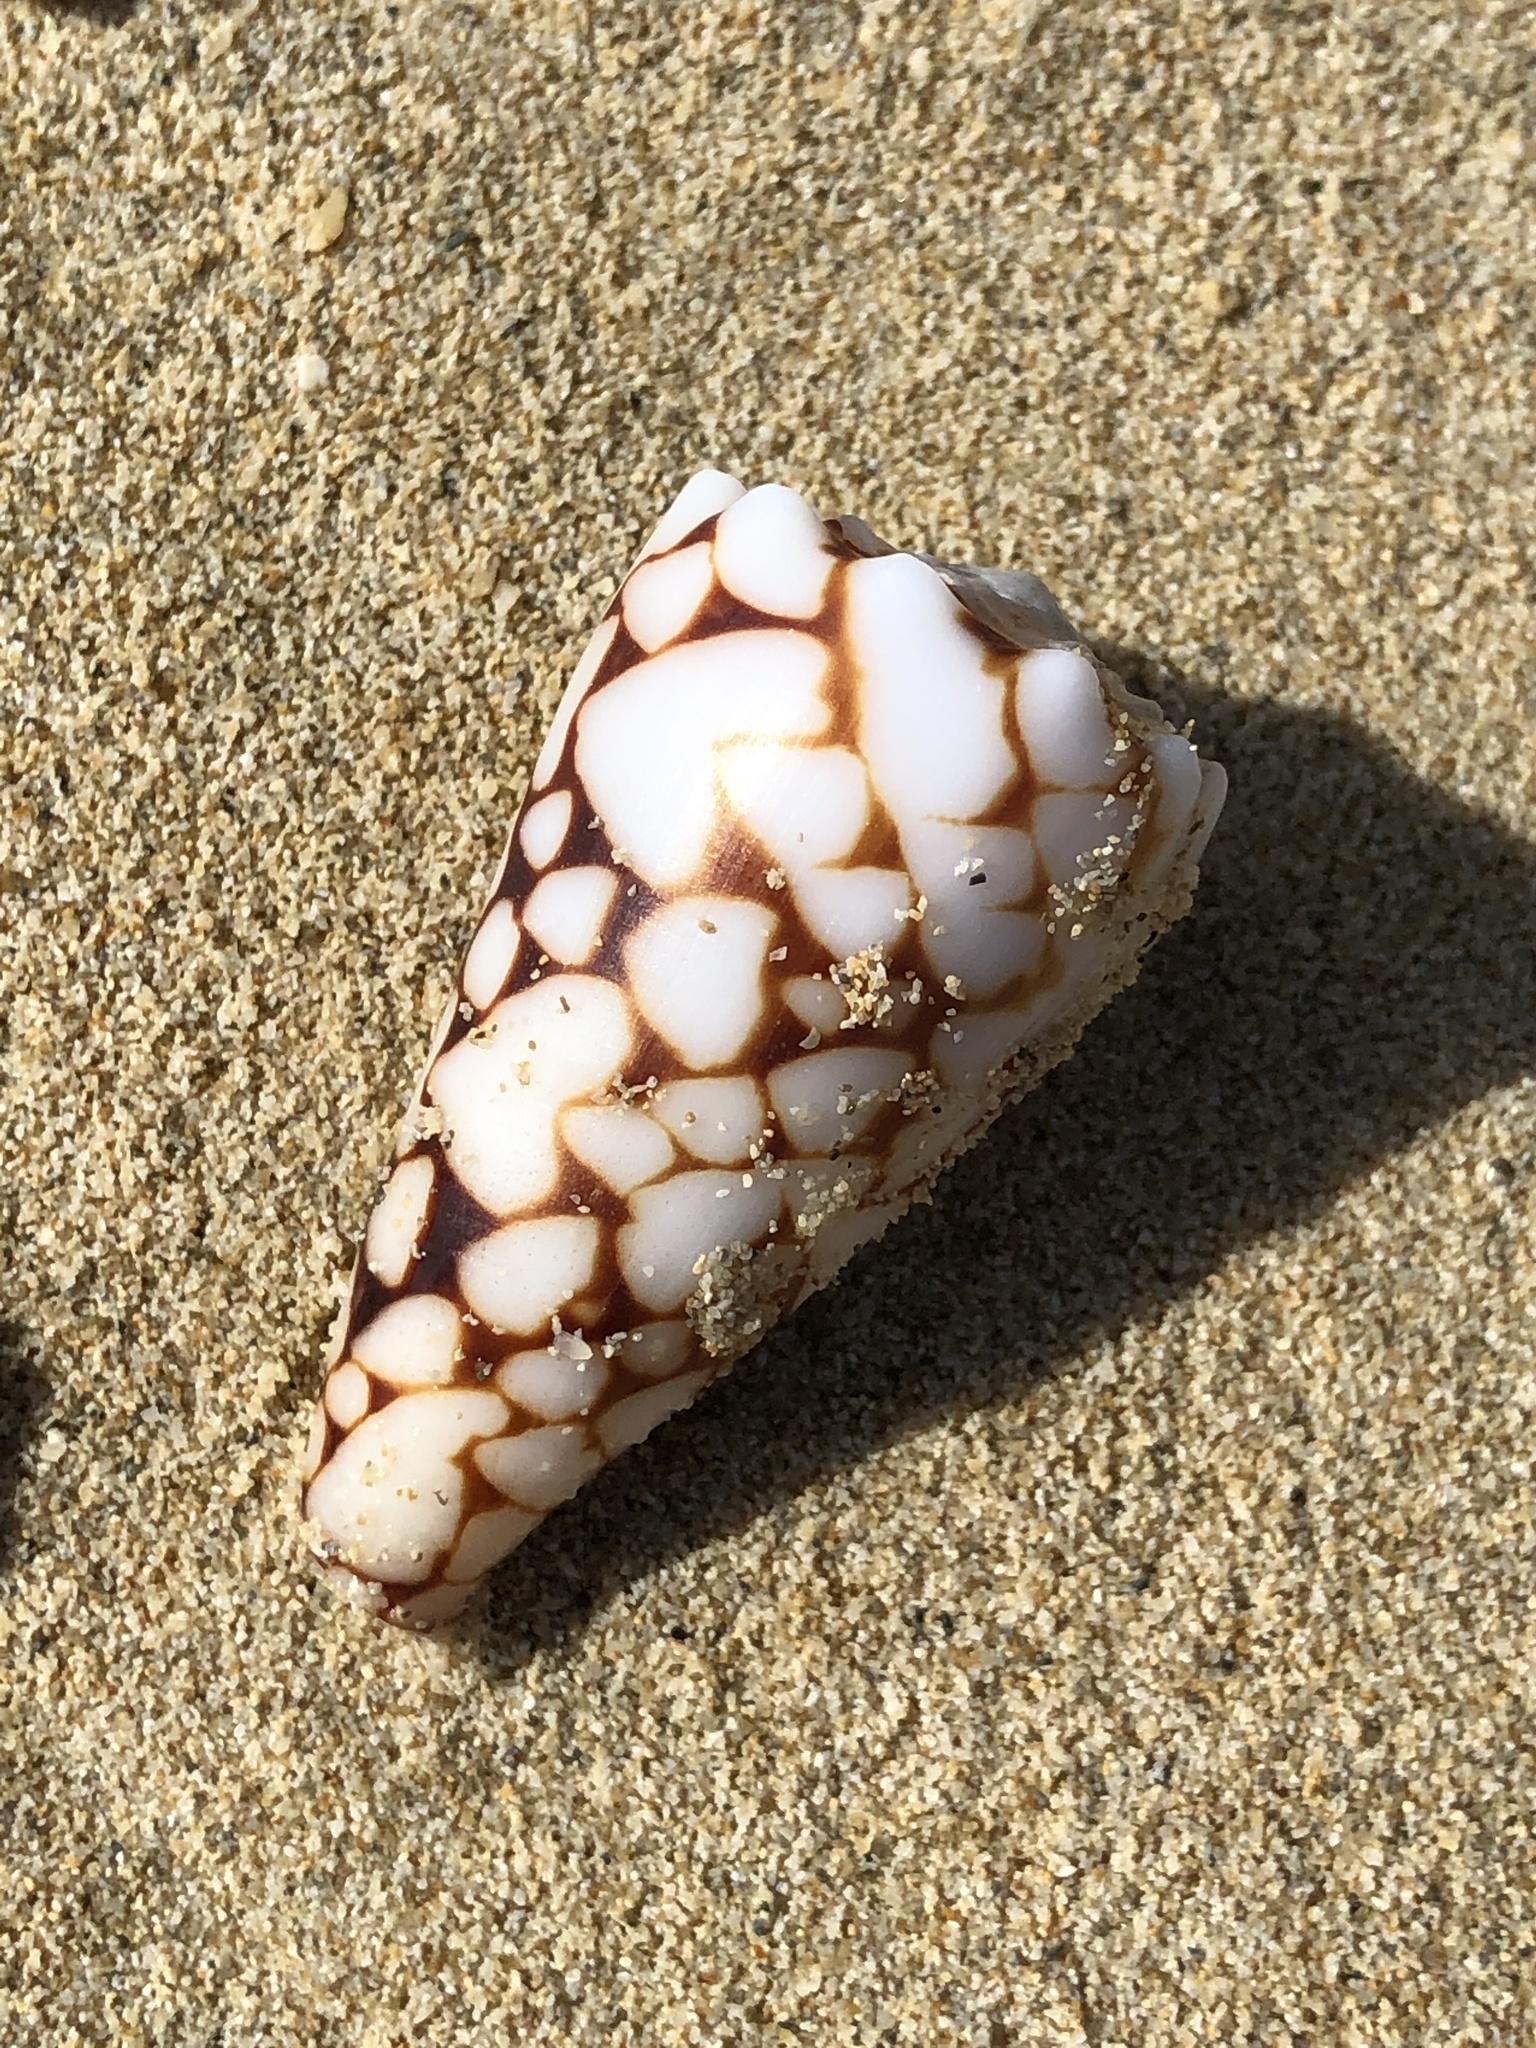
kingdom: Animalia
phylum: Mollusca
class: Gastropoda
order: Neogastropoda
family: Conidae
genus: Conus
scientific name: Conus bandanus
